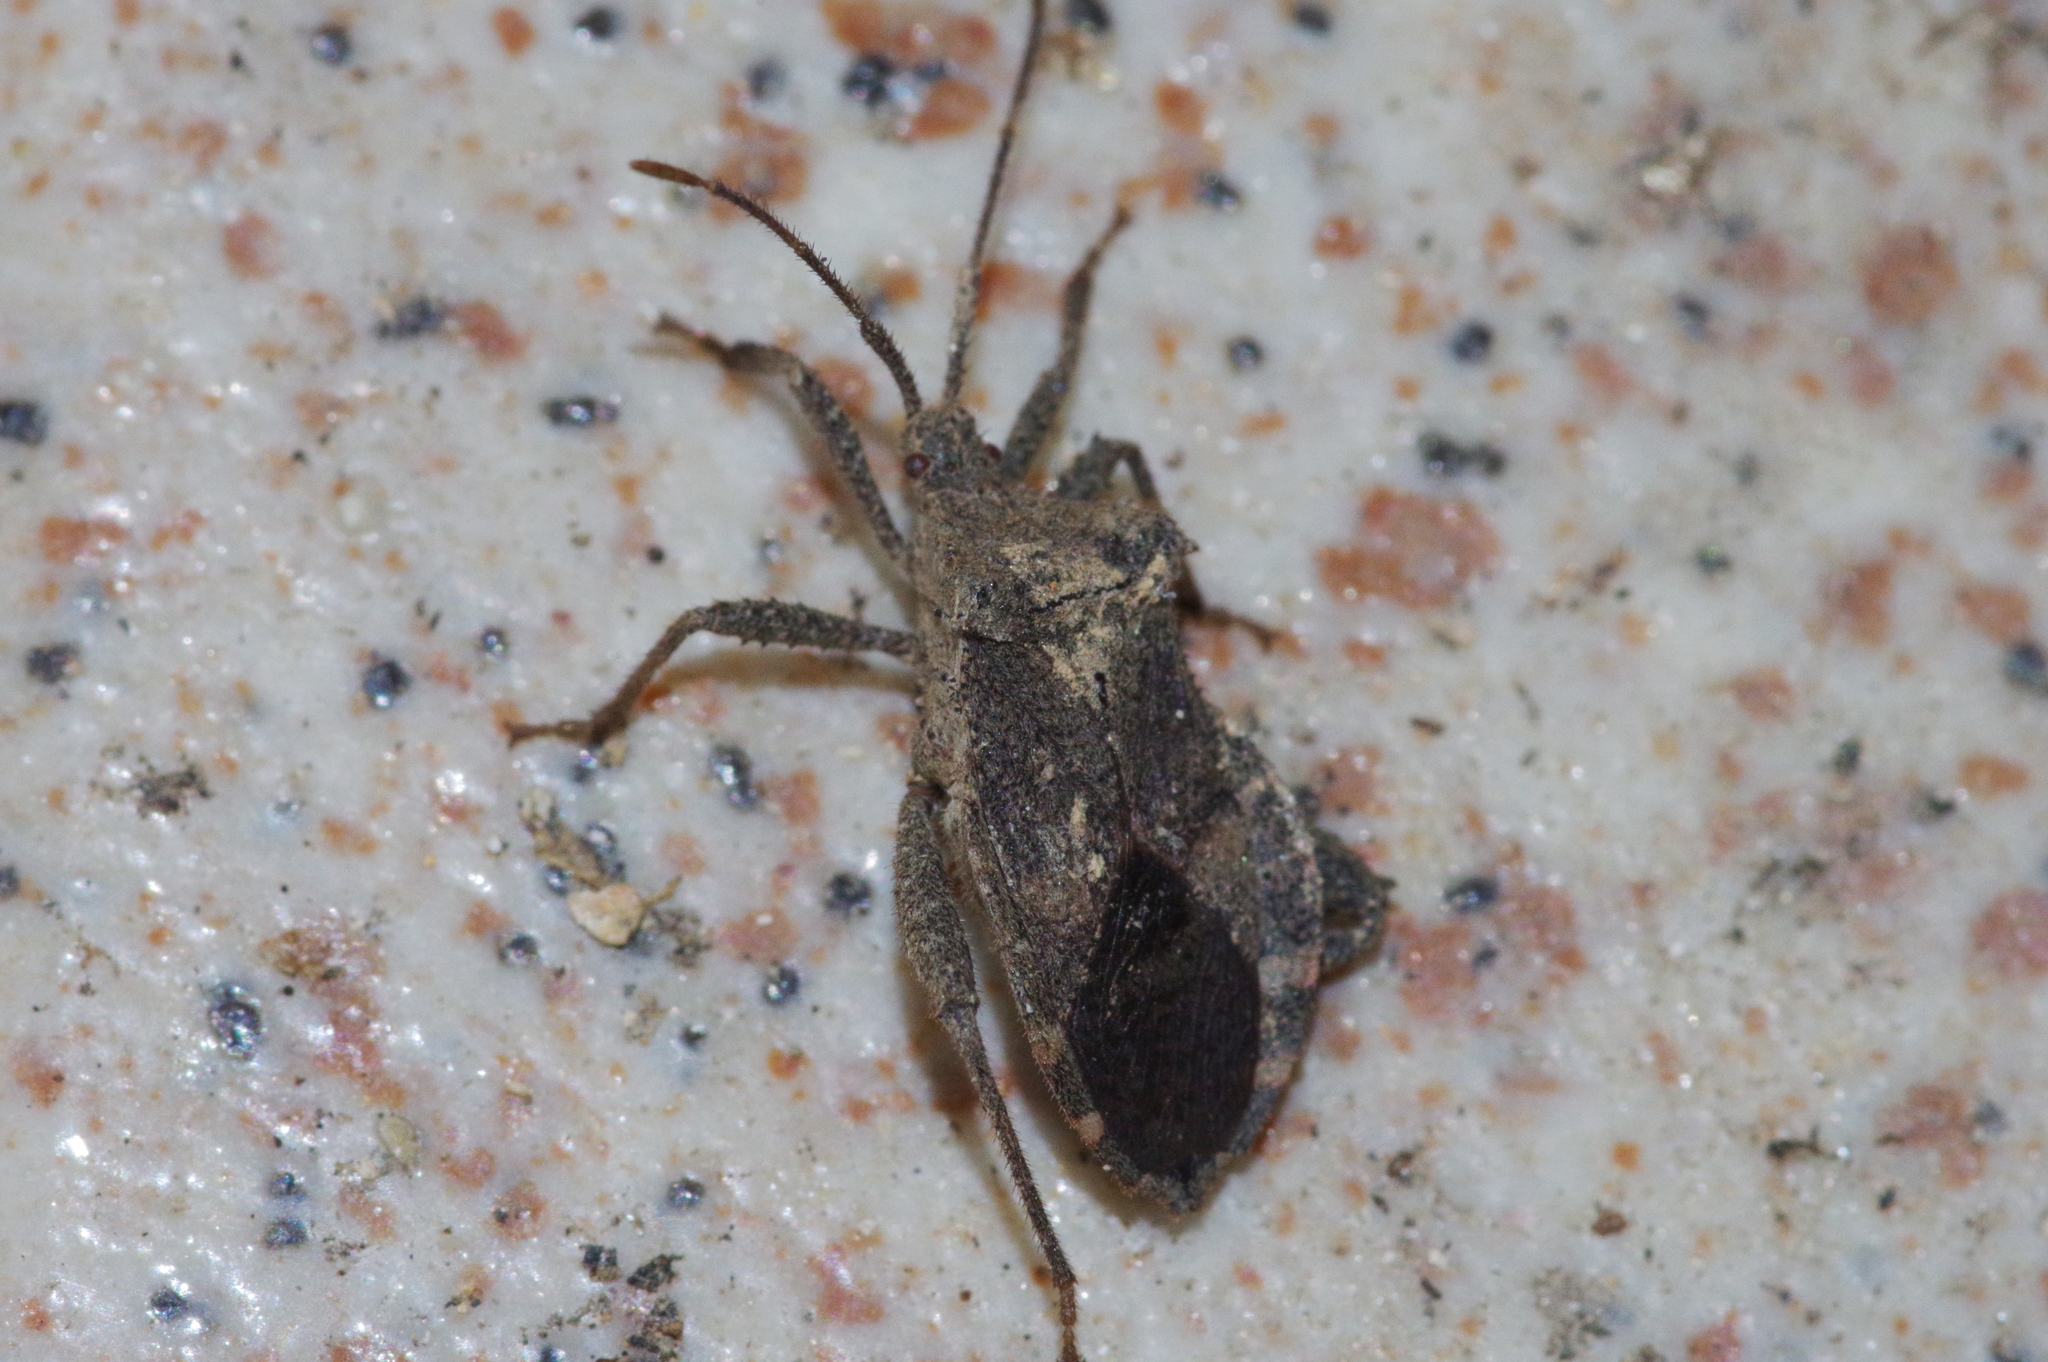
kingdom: Animalia
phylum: Arthropoda
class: Insecta
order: Hemiptera
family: Coreidae
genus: Acanthocoris
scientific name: Acanthocoris sordidus
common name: Winter cherry bug
